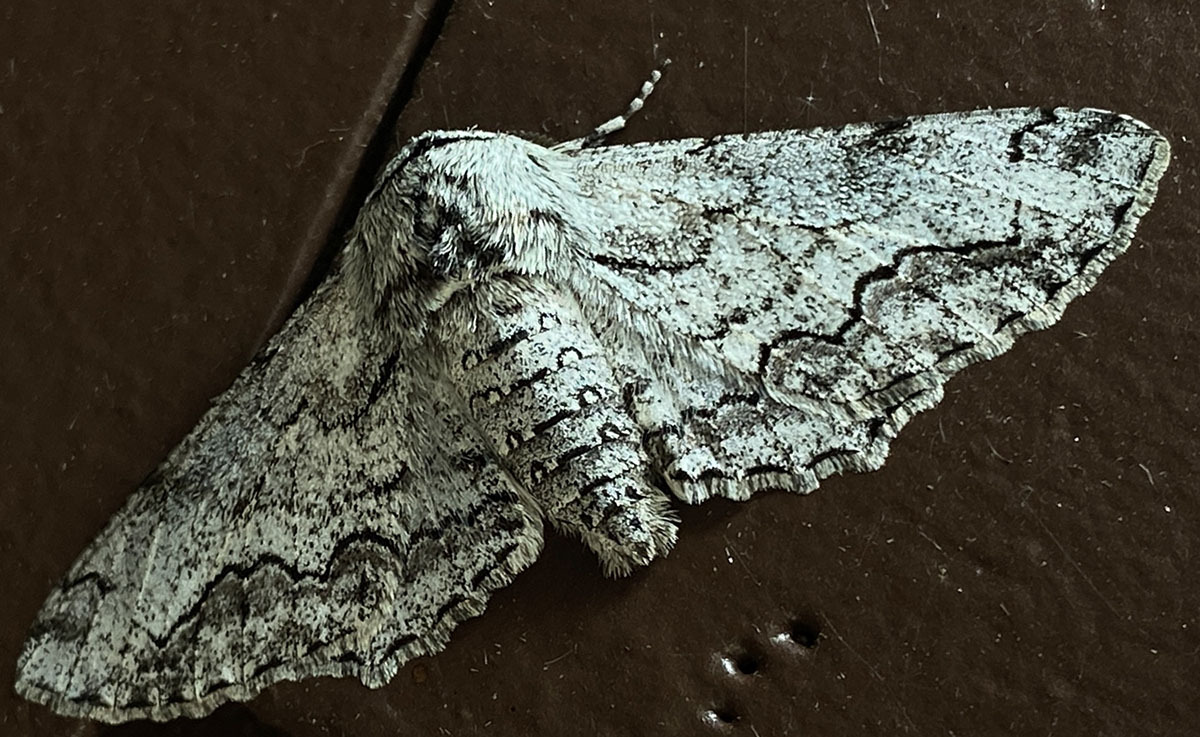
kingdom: Animalia
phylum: Arthropoda
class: Insecta
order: Lepidoptera
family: Geometridae
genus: Biston
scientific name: Biston sinuata
